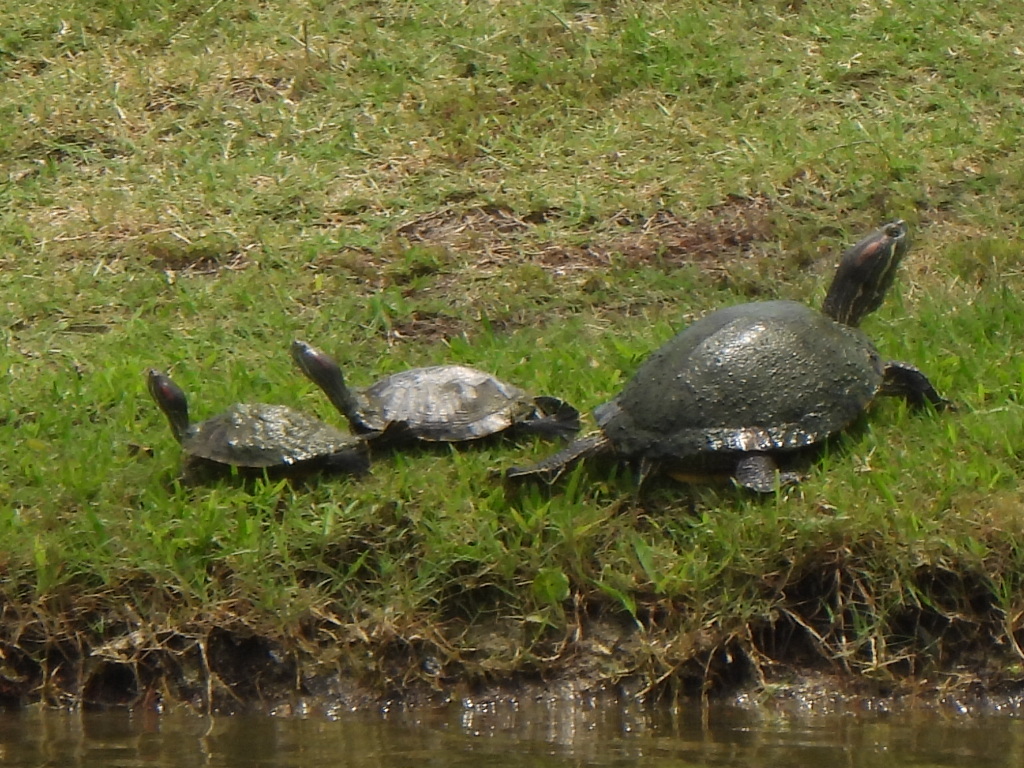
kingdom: Animalia
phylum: Chordata
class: Testudines
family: Emydidae
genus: Trachemys
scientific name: Trachemys scripta
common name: Slider
